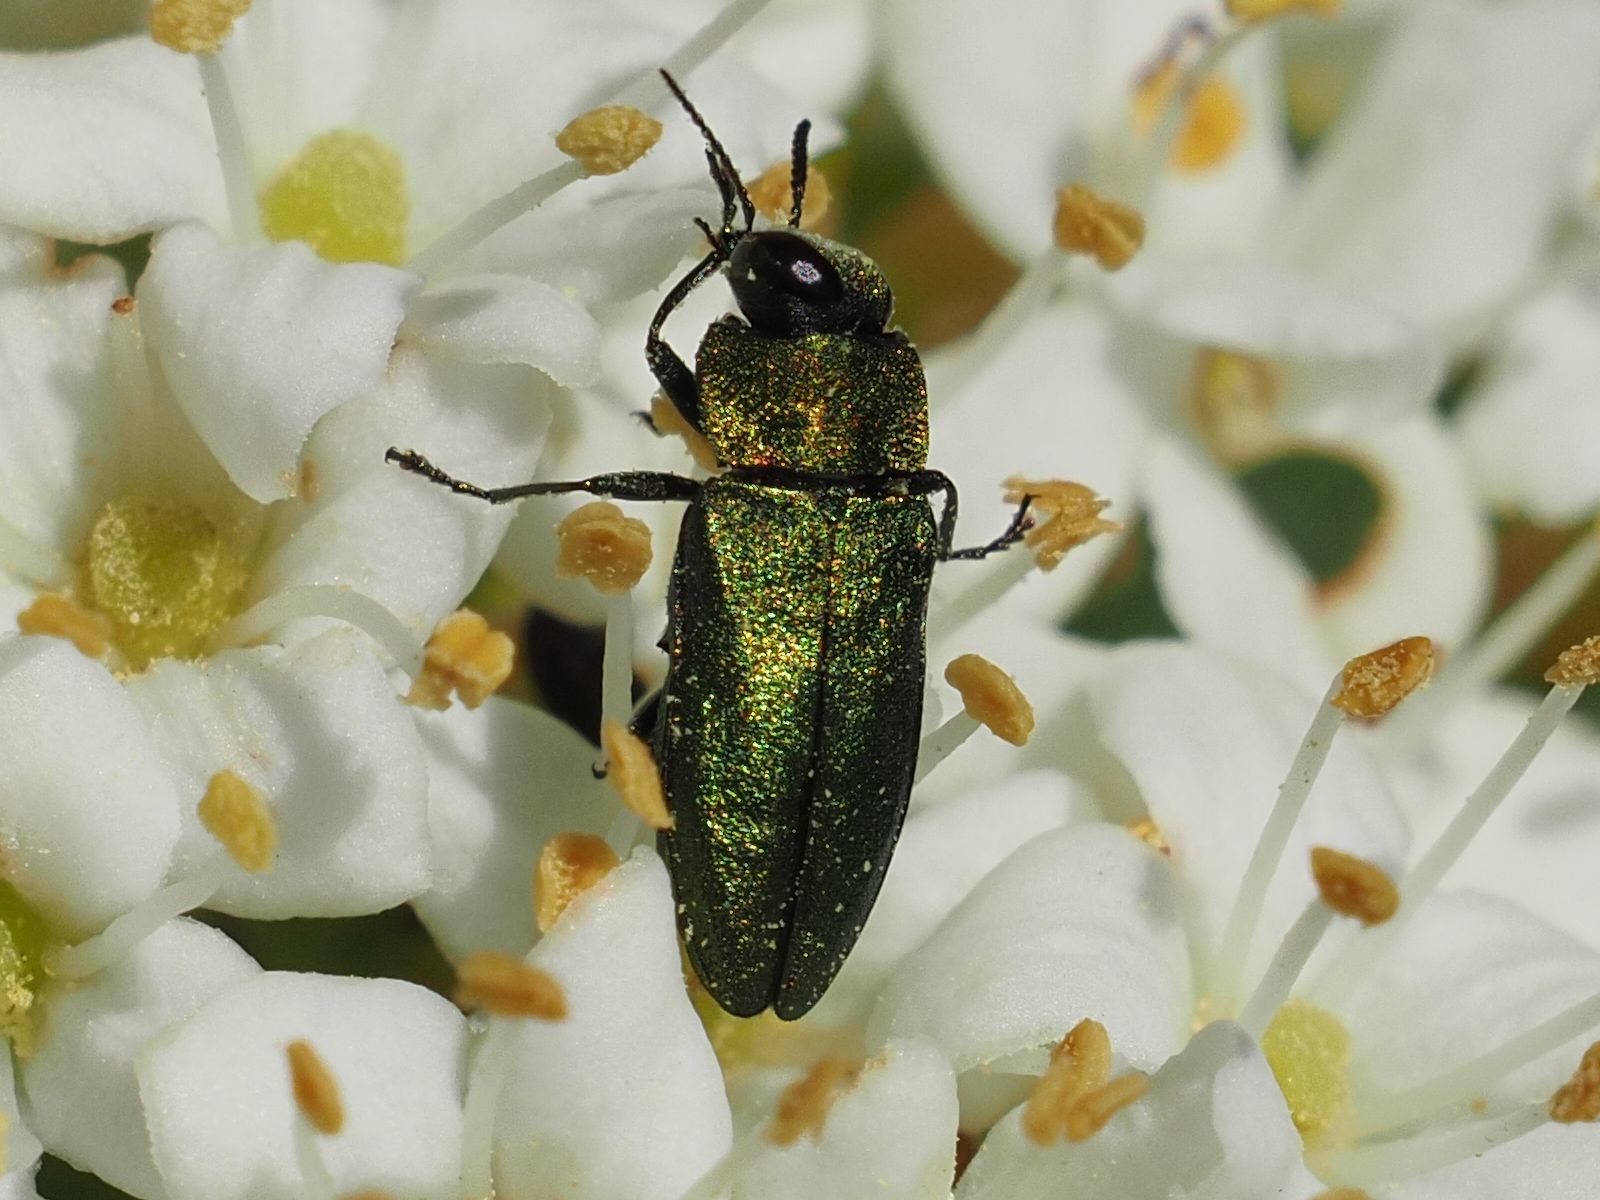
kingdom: Animalia
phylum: Arthropoda
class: Insecta
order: Coleoptera
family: Buprestidae
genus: Anthaxia
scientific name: Anthaxia nitidula
